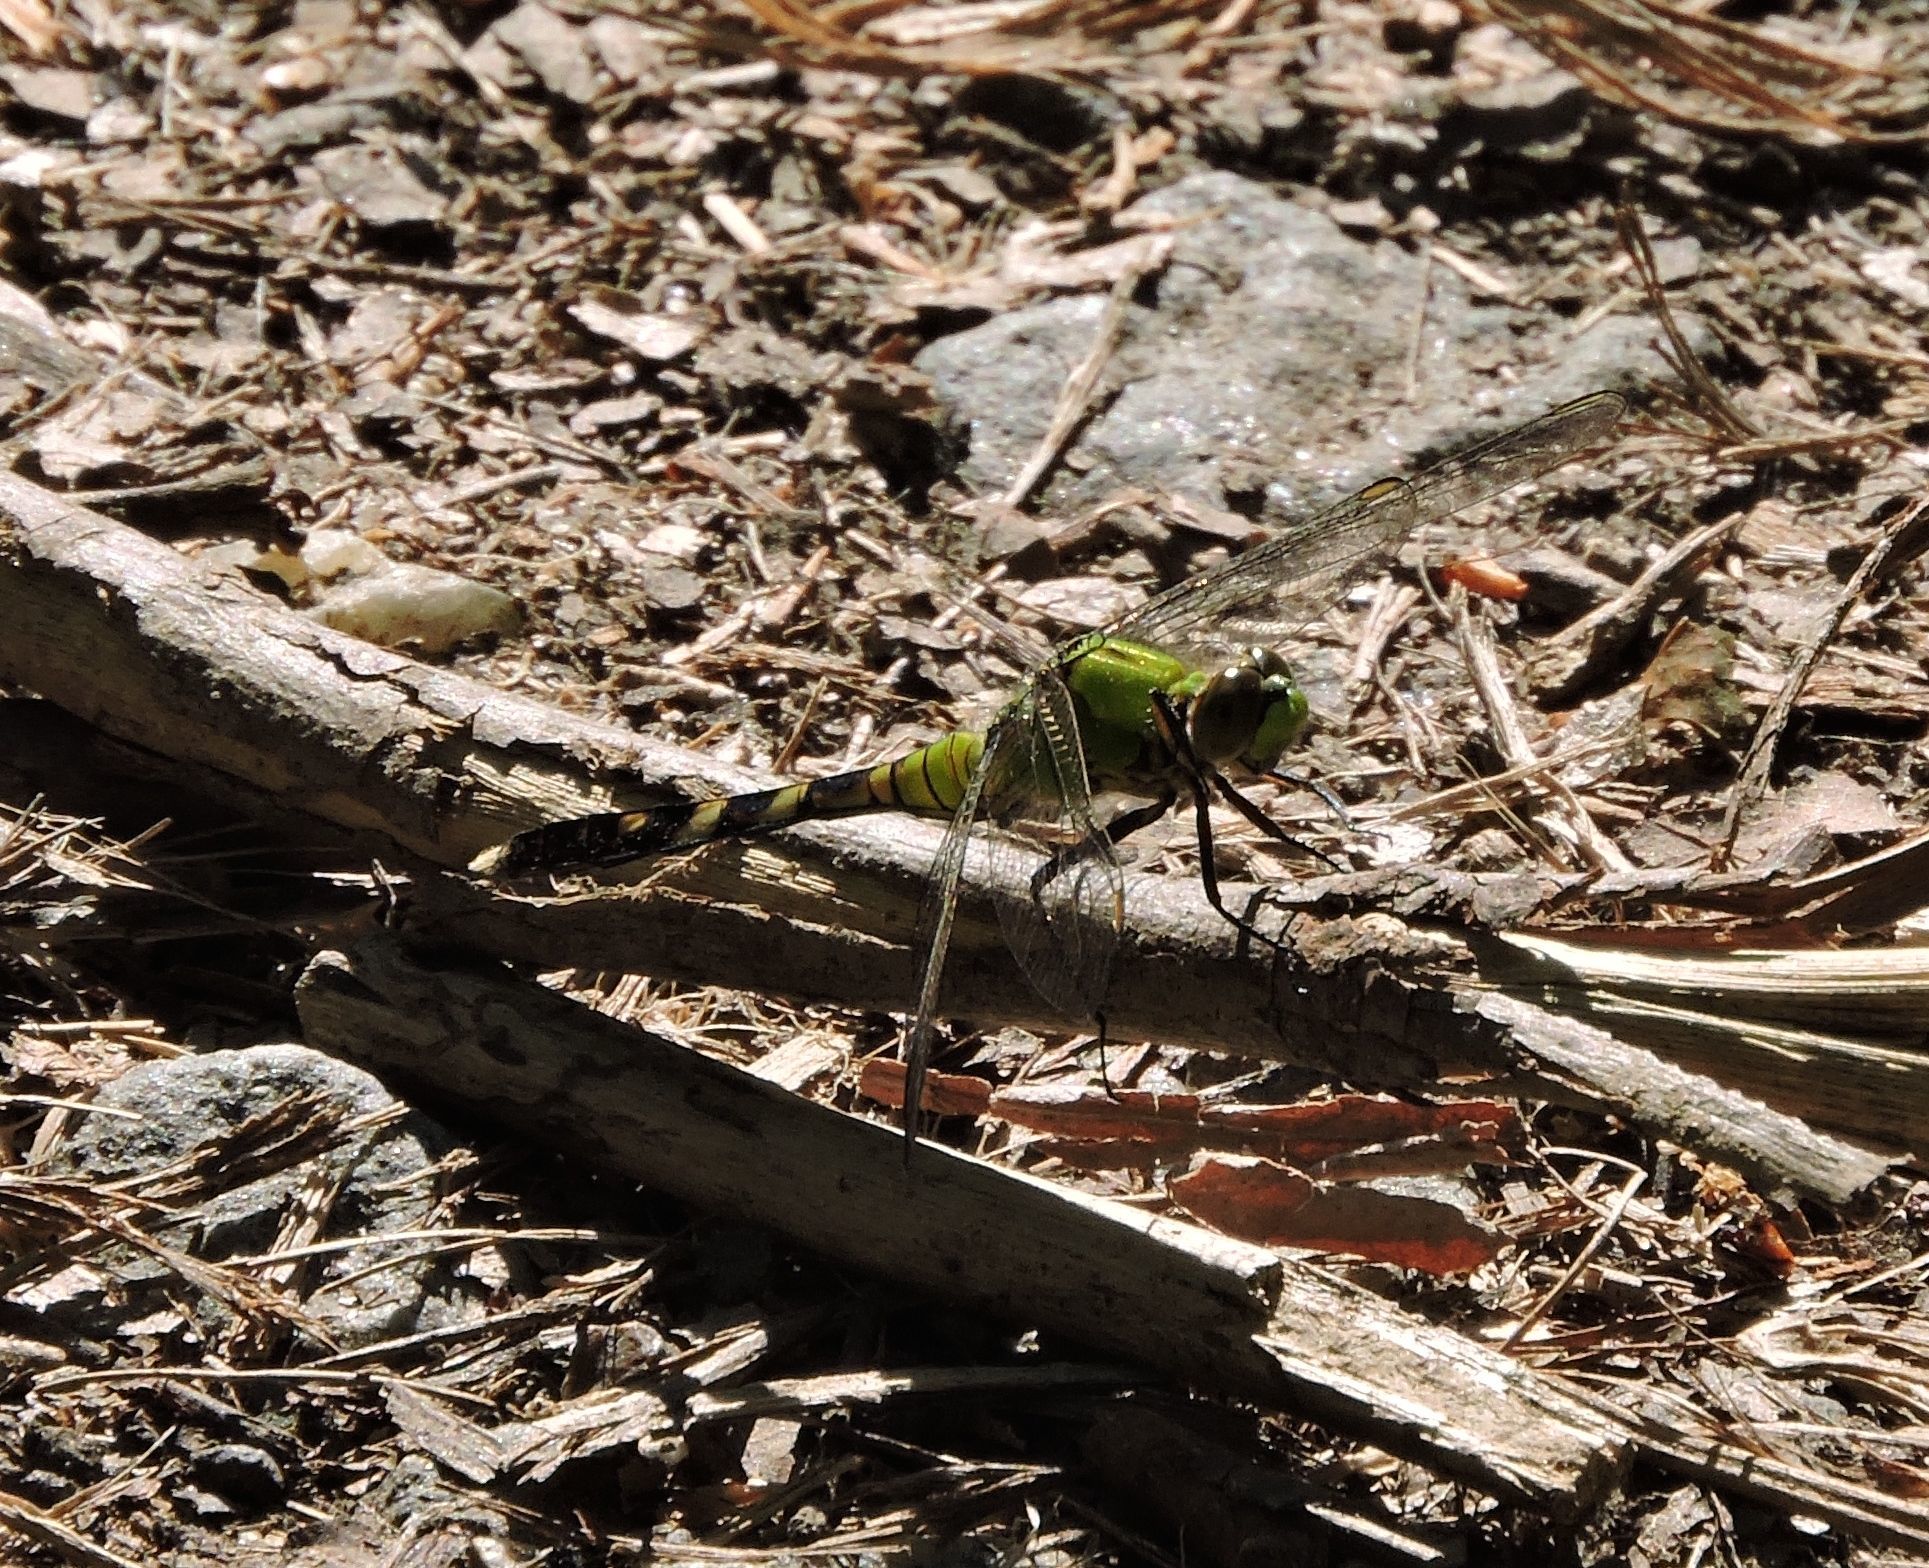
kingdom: Animalia
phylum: Arthropoda
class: Insecta
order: Odonata
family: Libellulidae
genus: Erythemis
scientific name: Erythemis simplicicollis
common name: Eastern pondhawk
